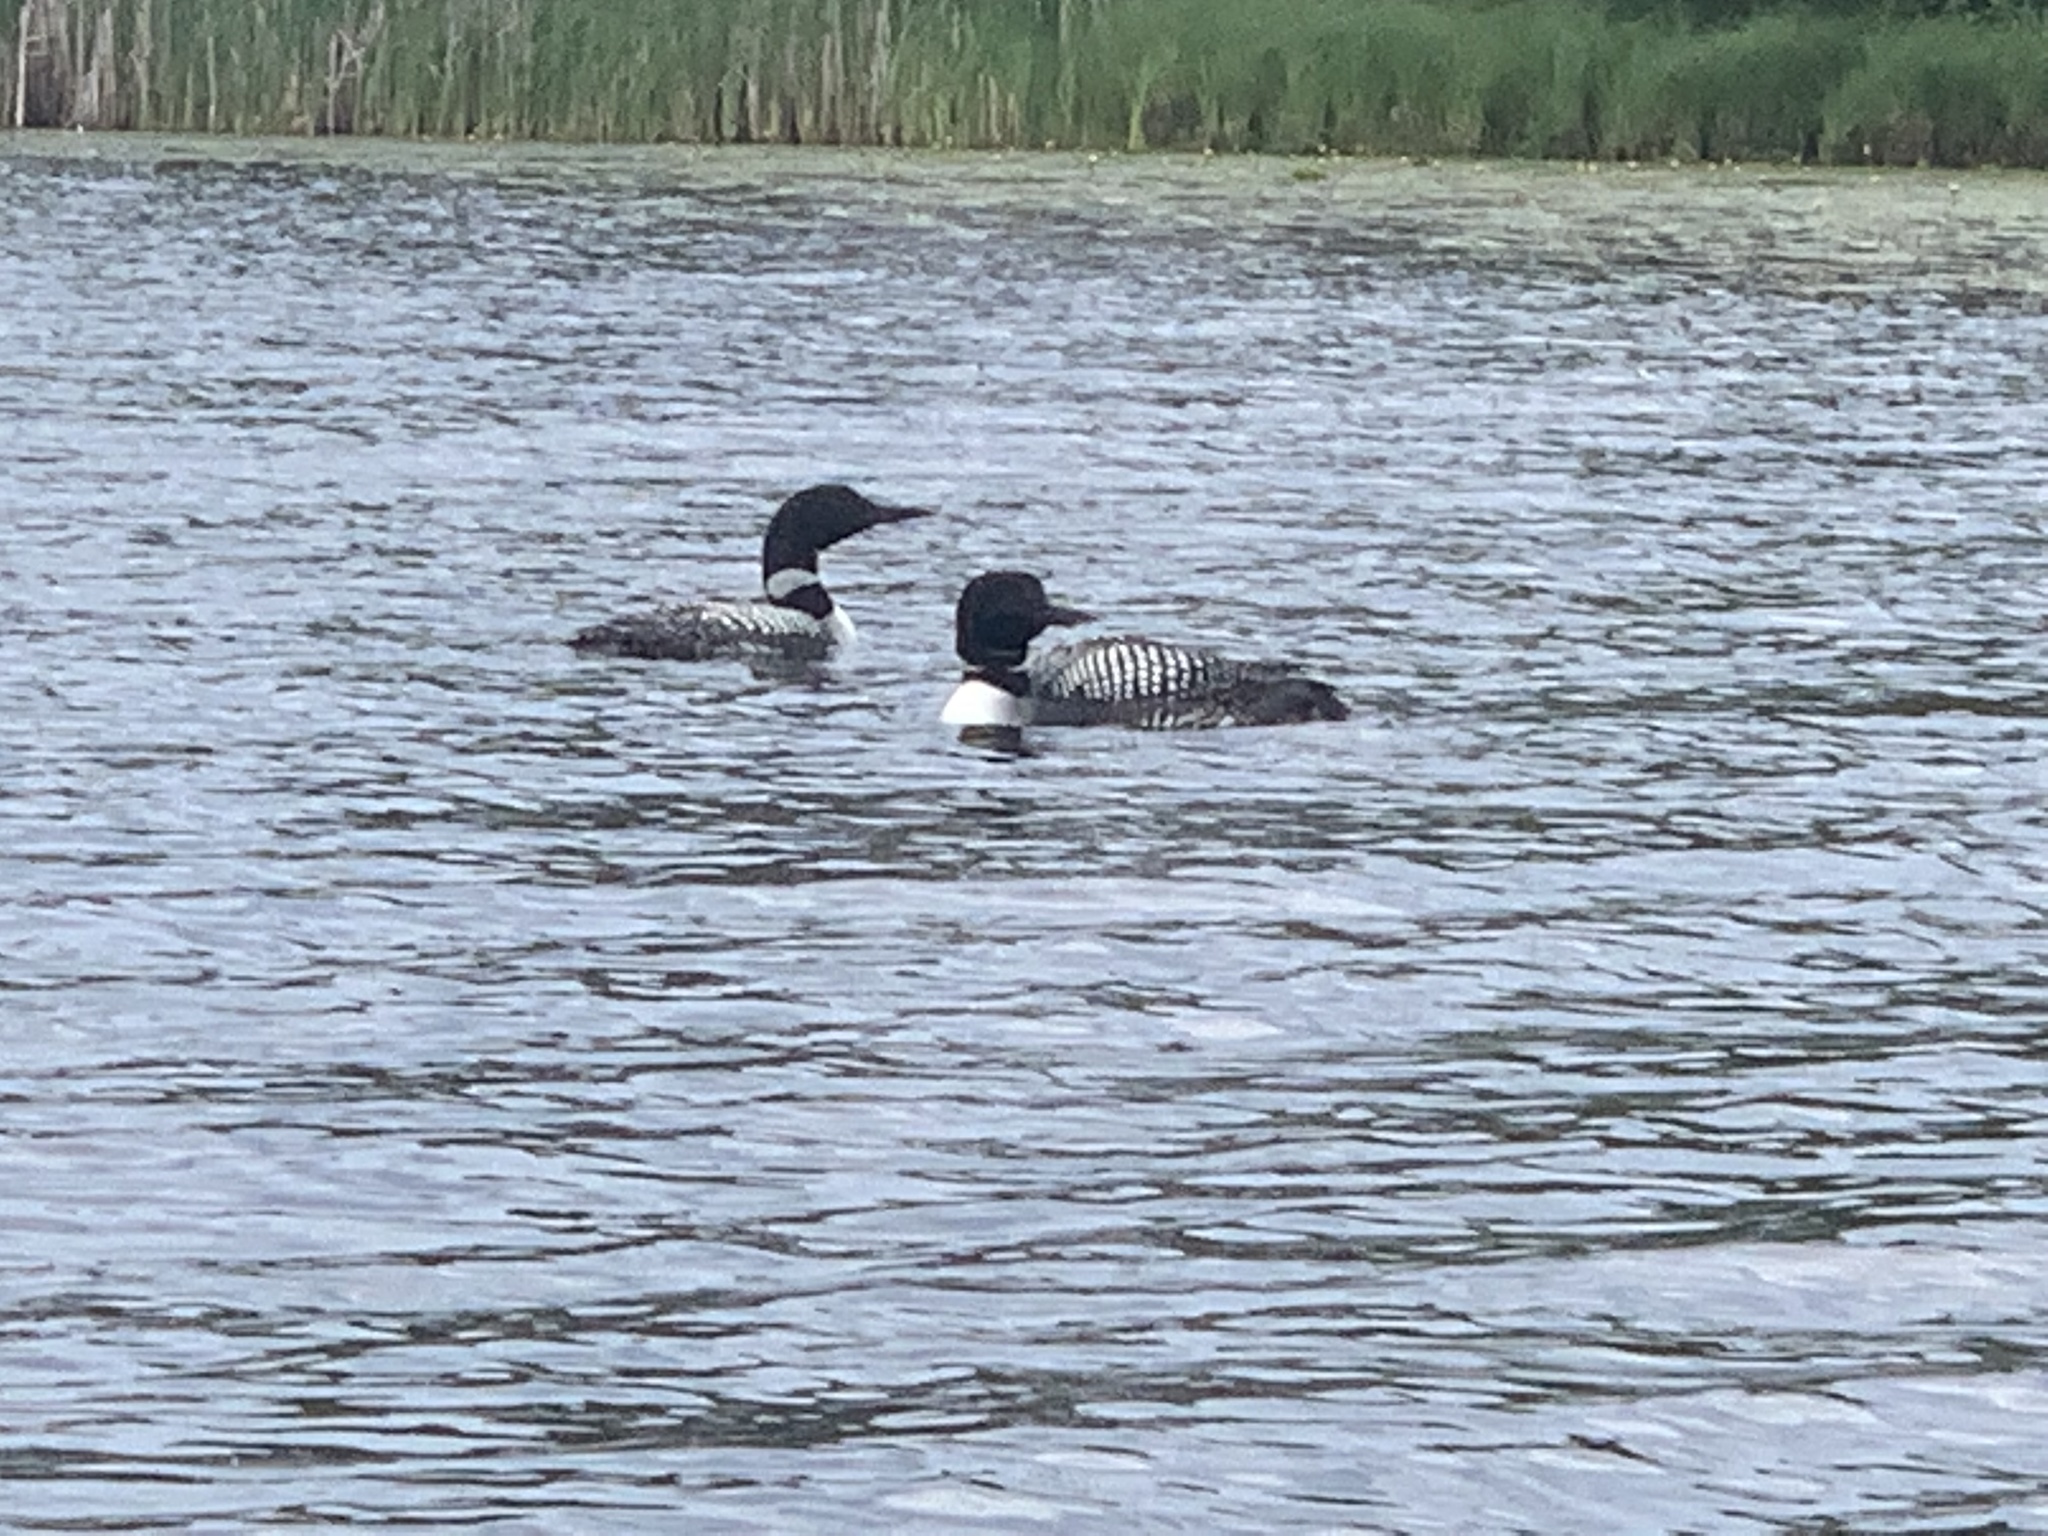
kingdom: Animalia
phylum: Chordata
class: Aves
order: Gaviiformes
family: Gaviidae
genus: Gavia
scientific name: Gavia immer
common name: Common loon
